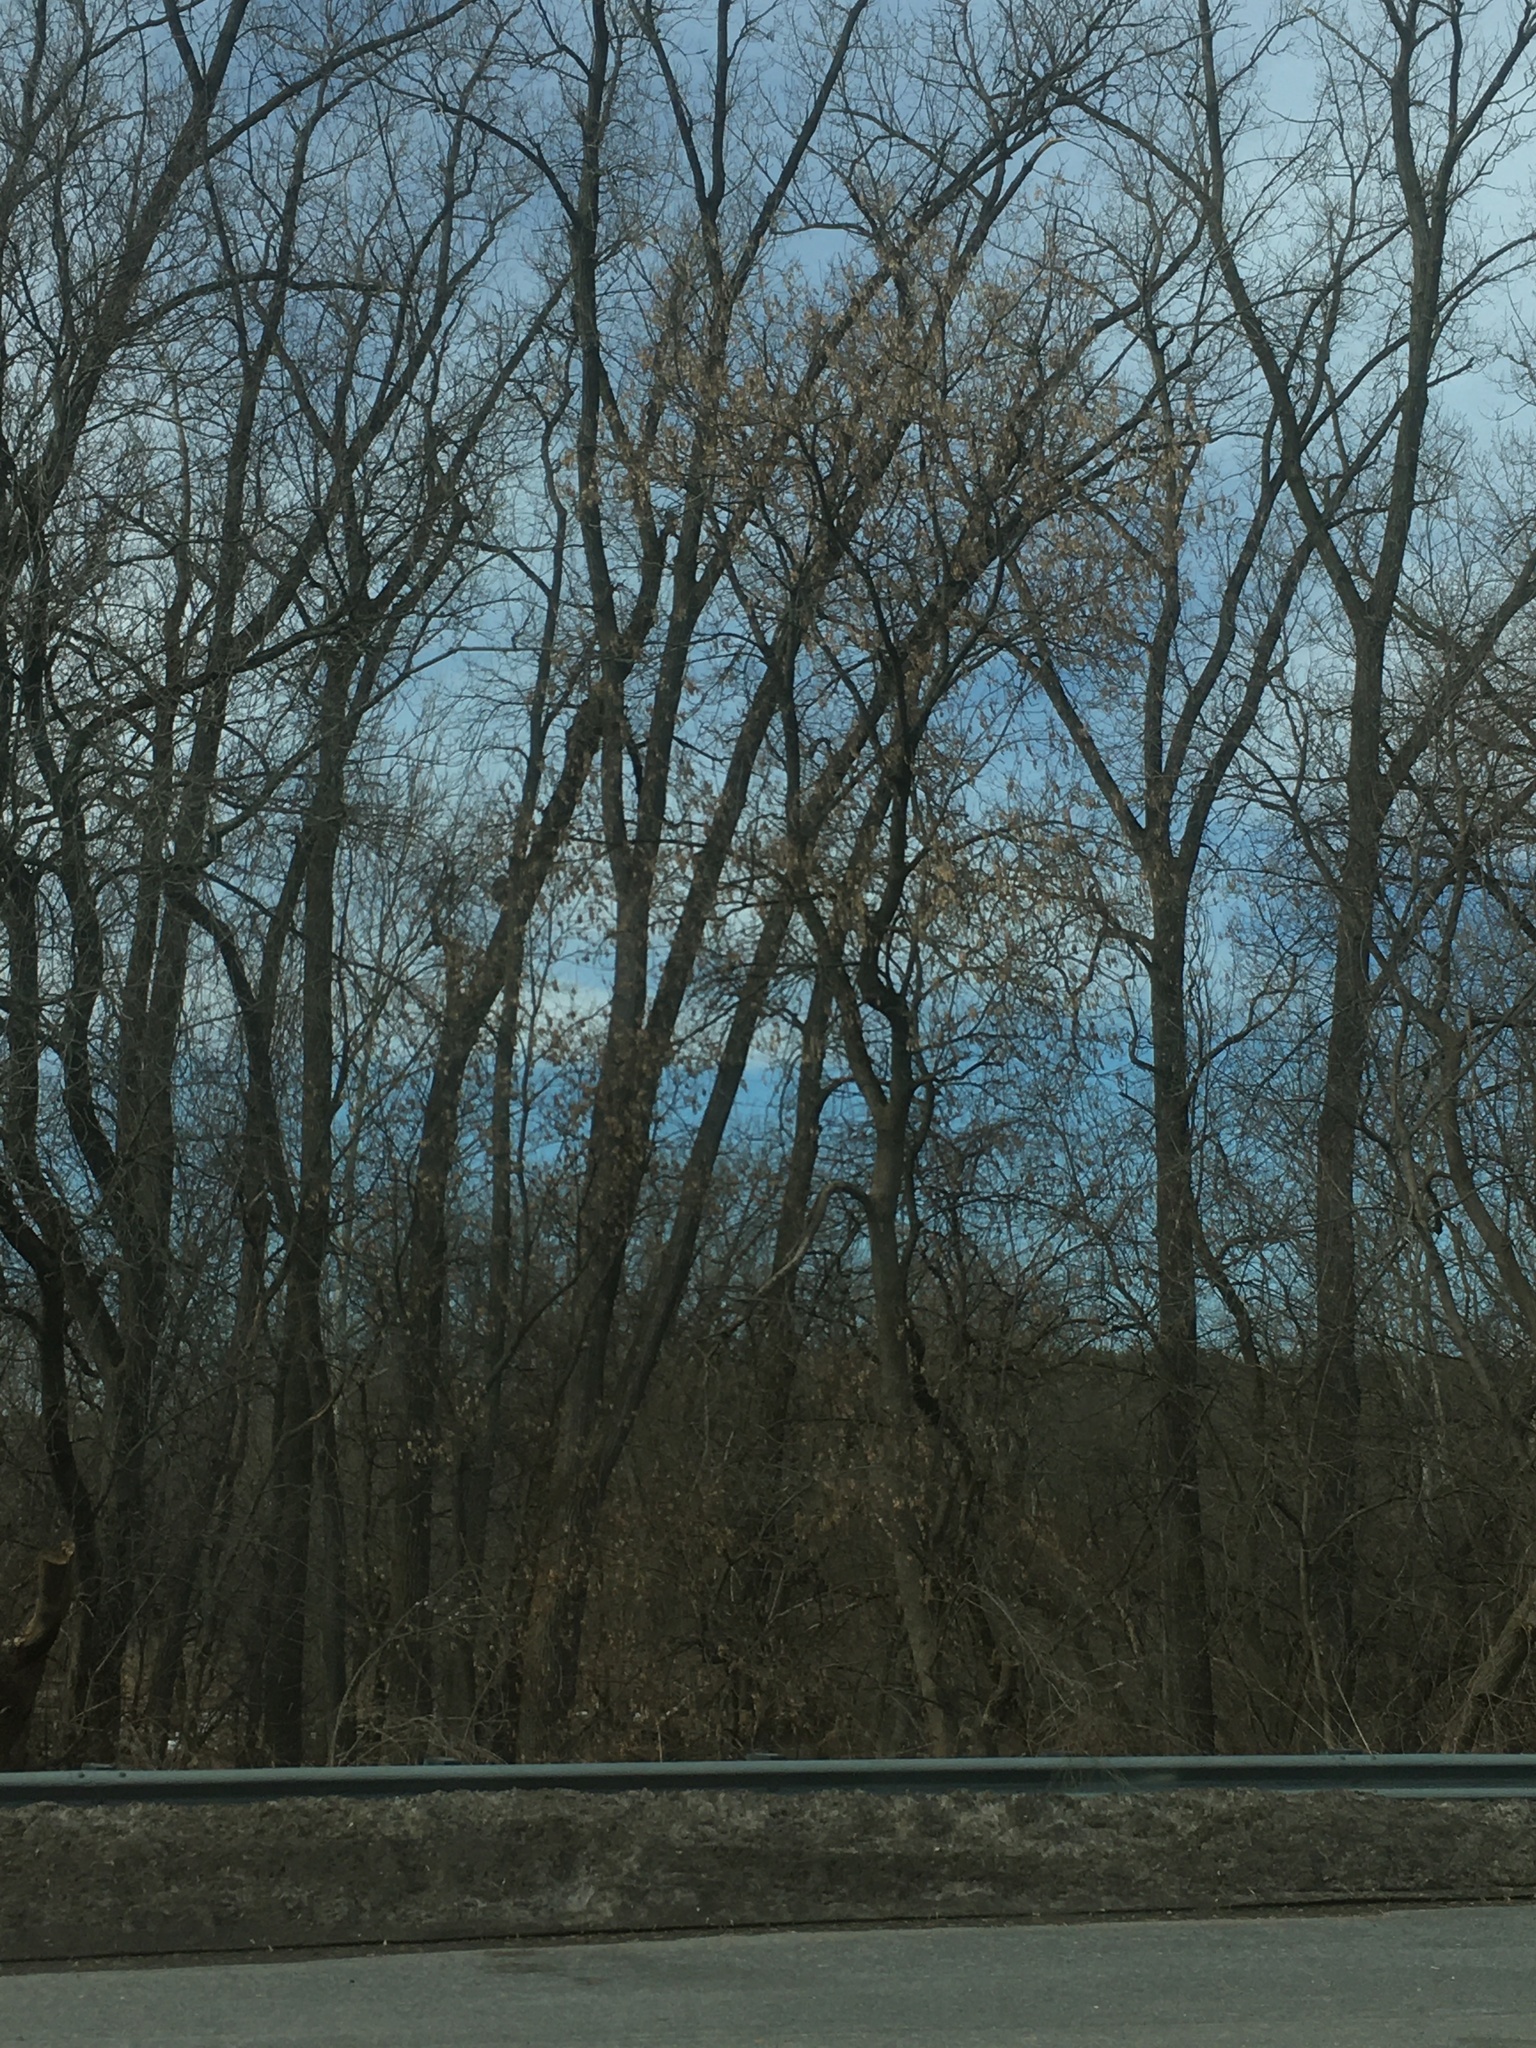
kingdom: Plantae
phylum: Tracheophyta
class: Magnoliopsida
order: Sapindales
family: Sapindaceae
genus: Acer
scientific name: Acer negundo
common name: Ashleaf maple
